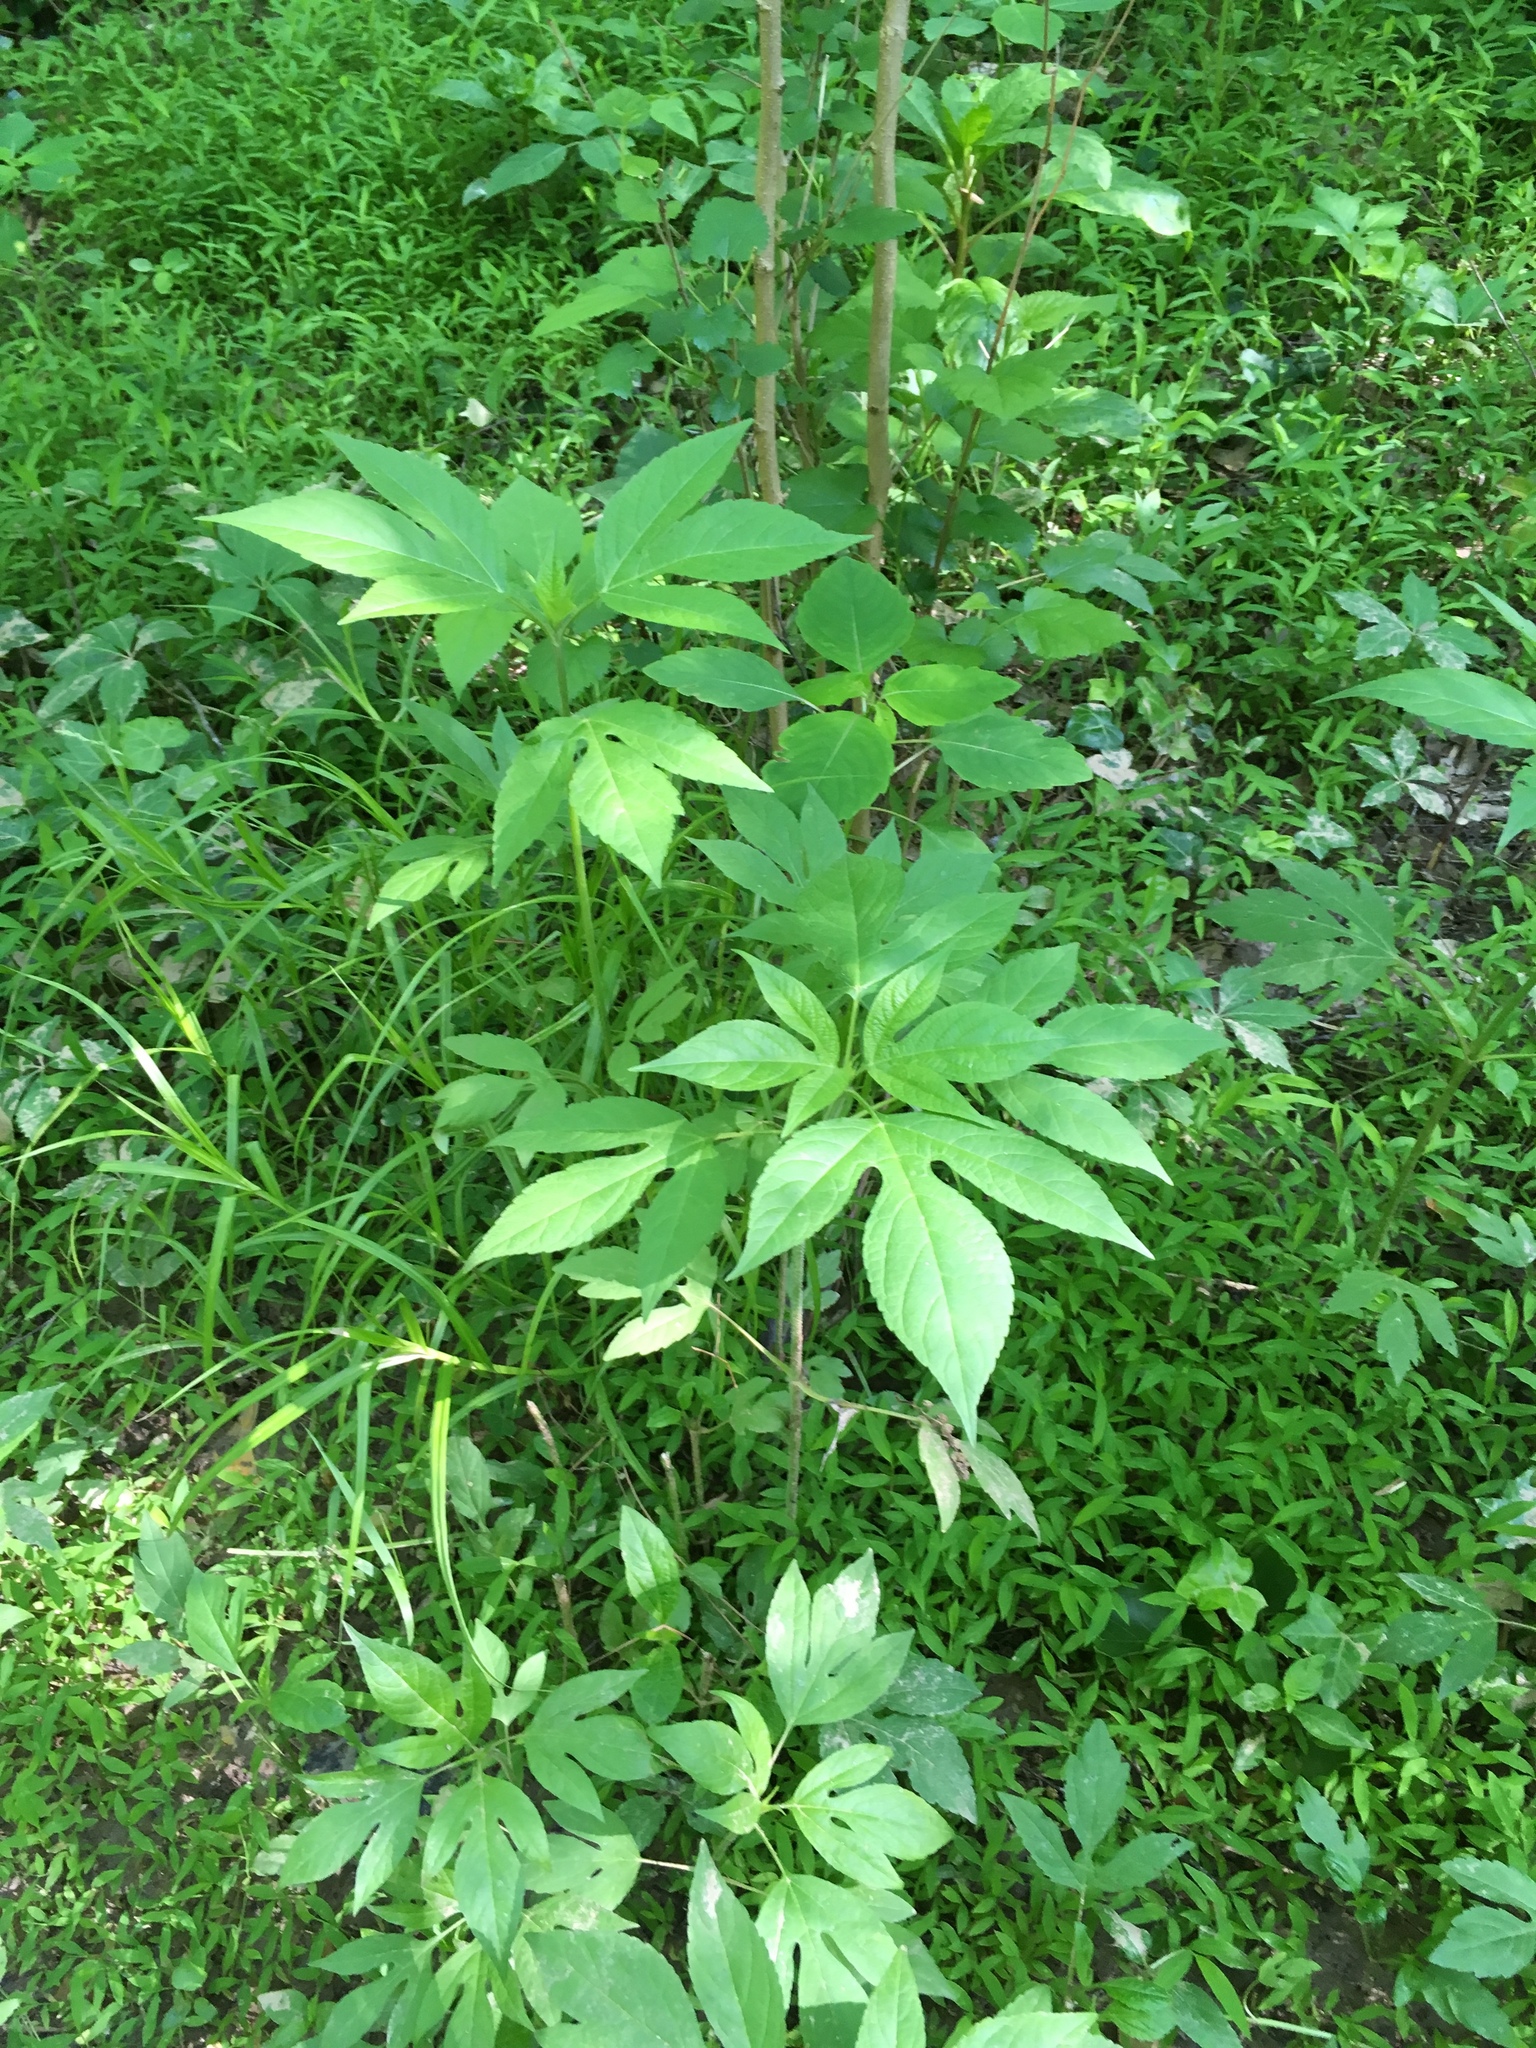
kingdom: Plantae
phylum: Tracheophyta
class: Magnoliopsida
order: Asterales
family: Asteraceae
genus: Ambrosia
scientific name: Ambrosia trifida
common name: Giant ragweed
